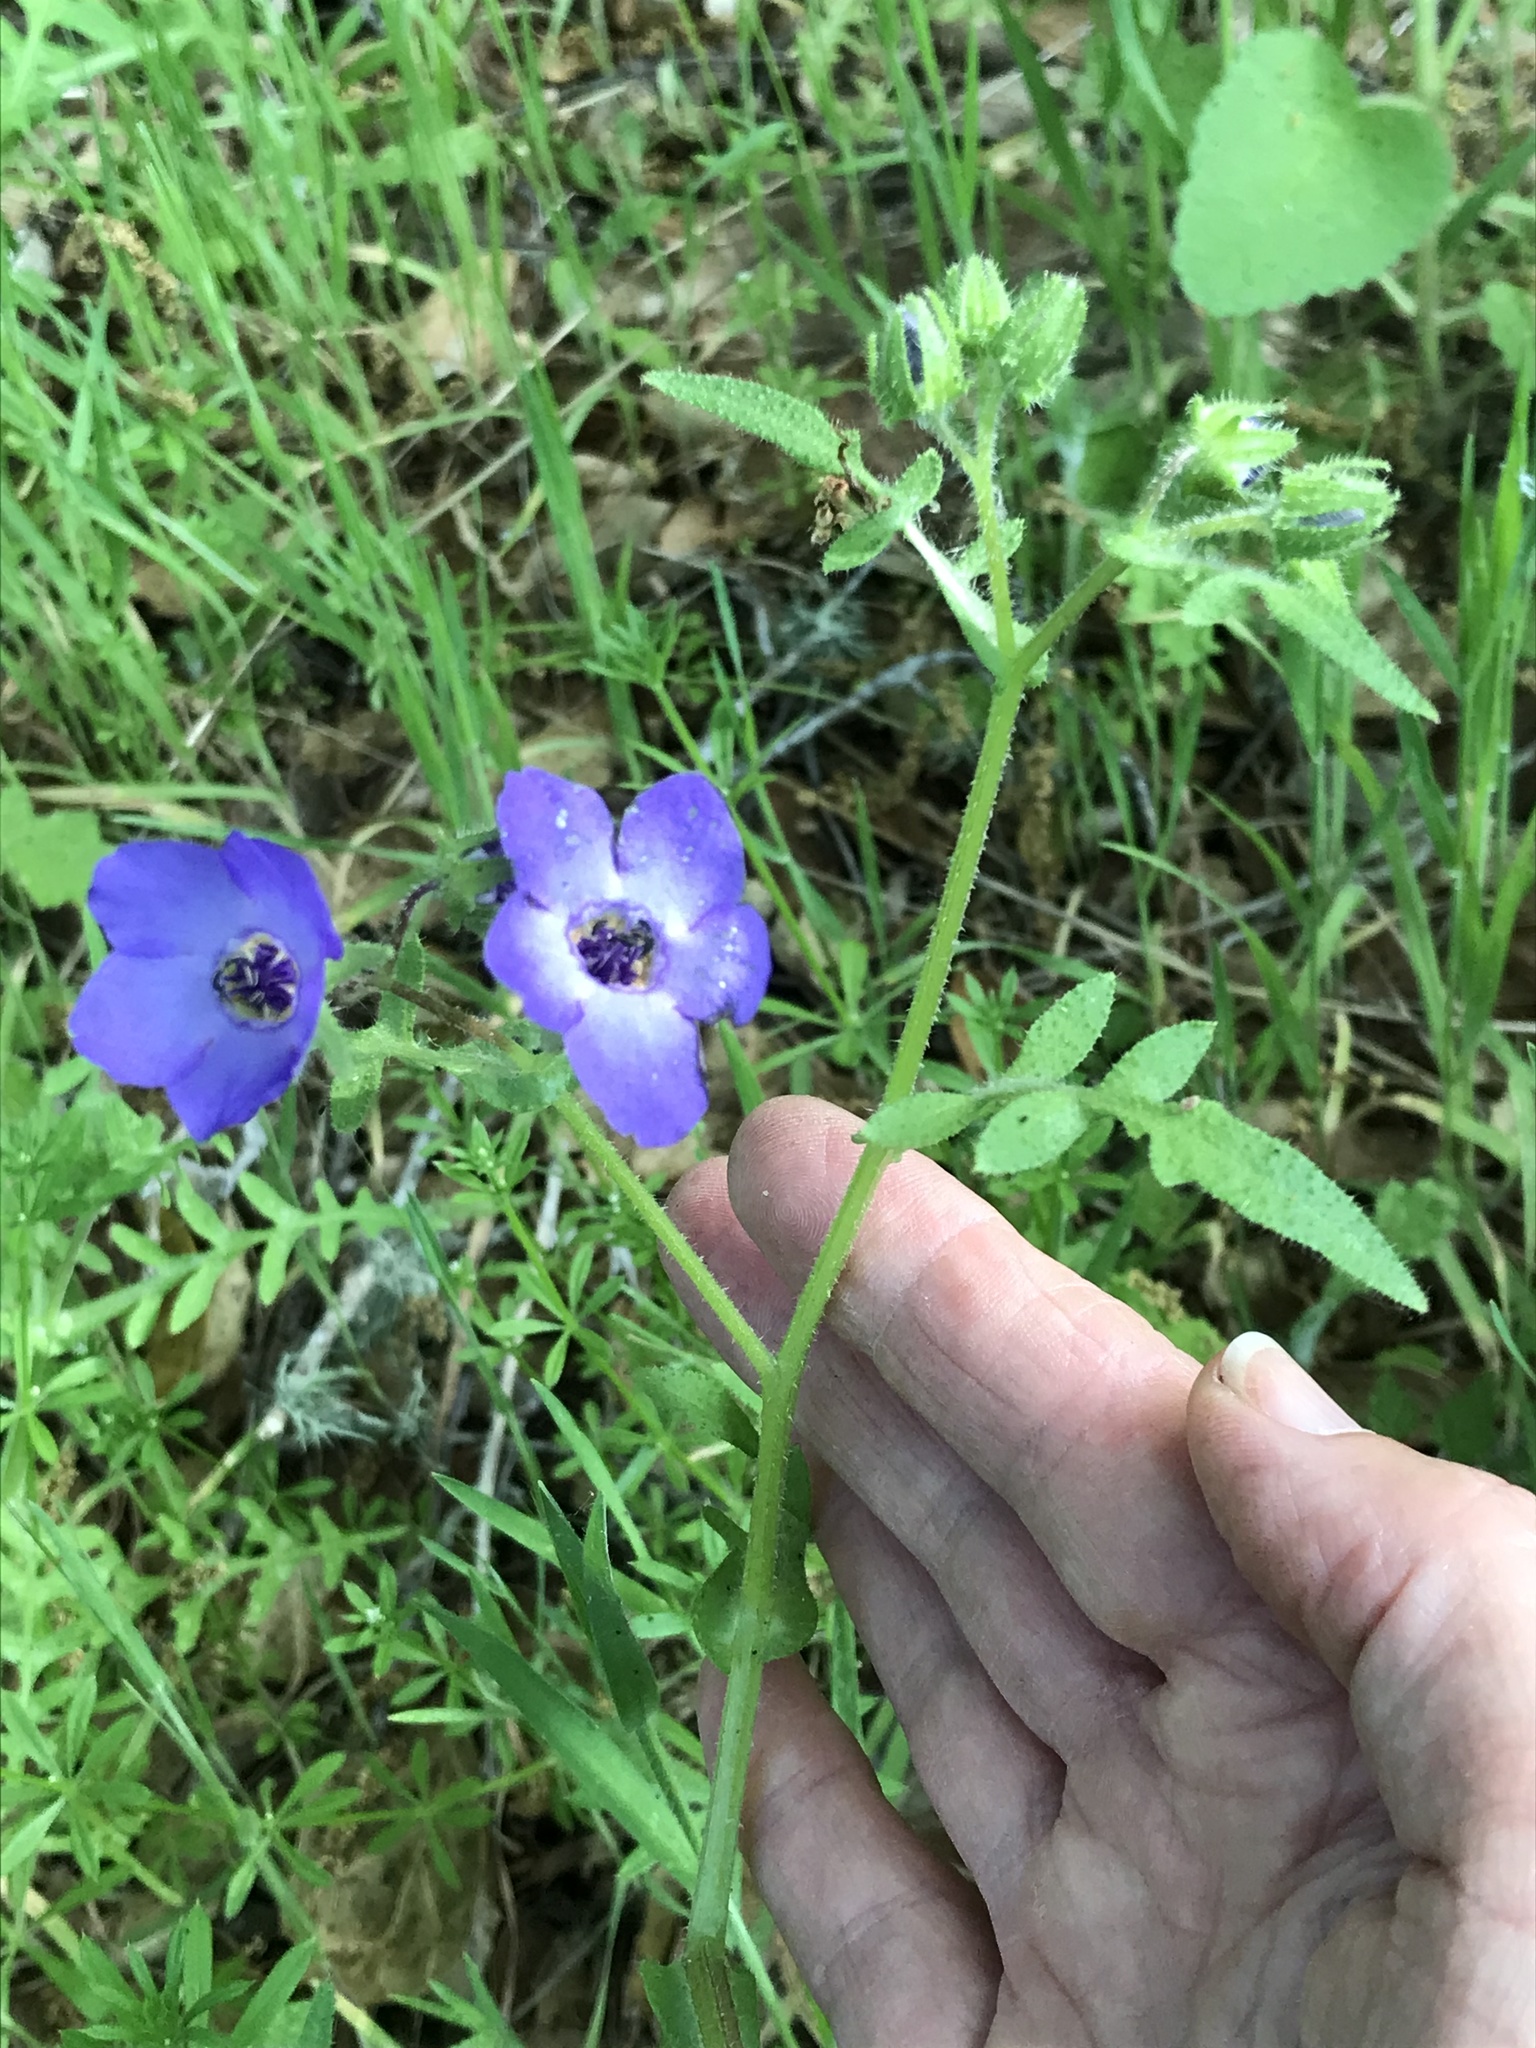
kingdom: Plantae
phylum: Tracheophyta
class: Magnoliopsida
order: Boraginales
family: Hydrophyllaceae
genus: Pholistoma
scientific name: Pholistoma auritum
